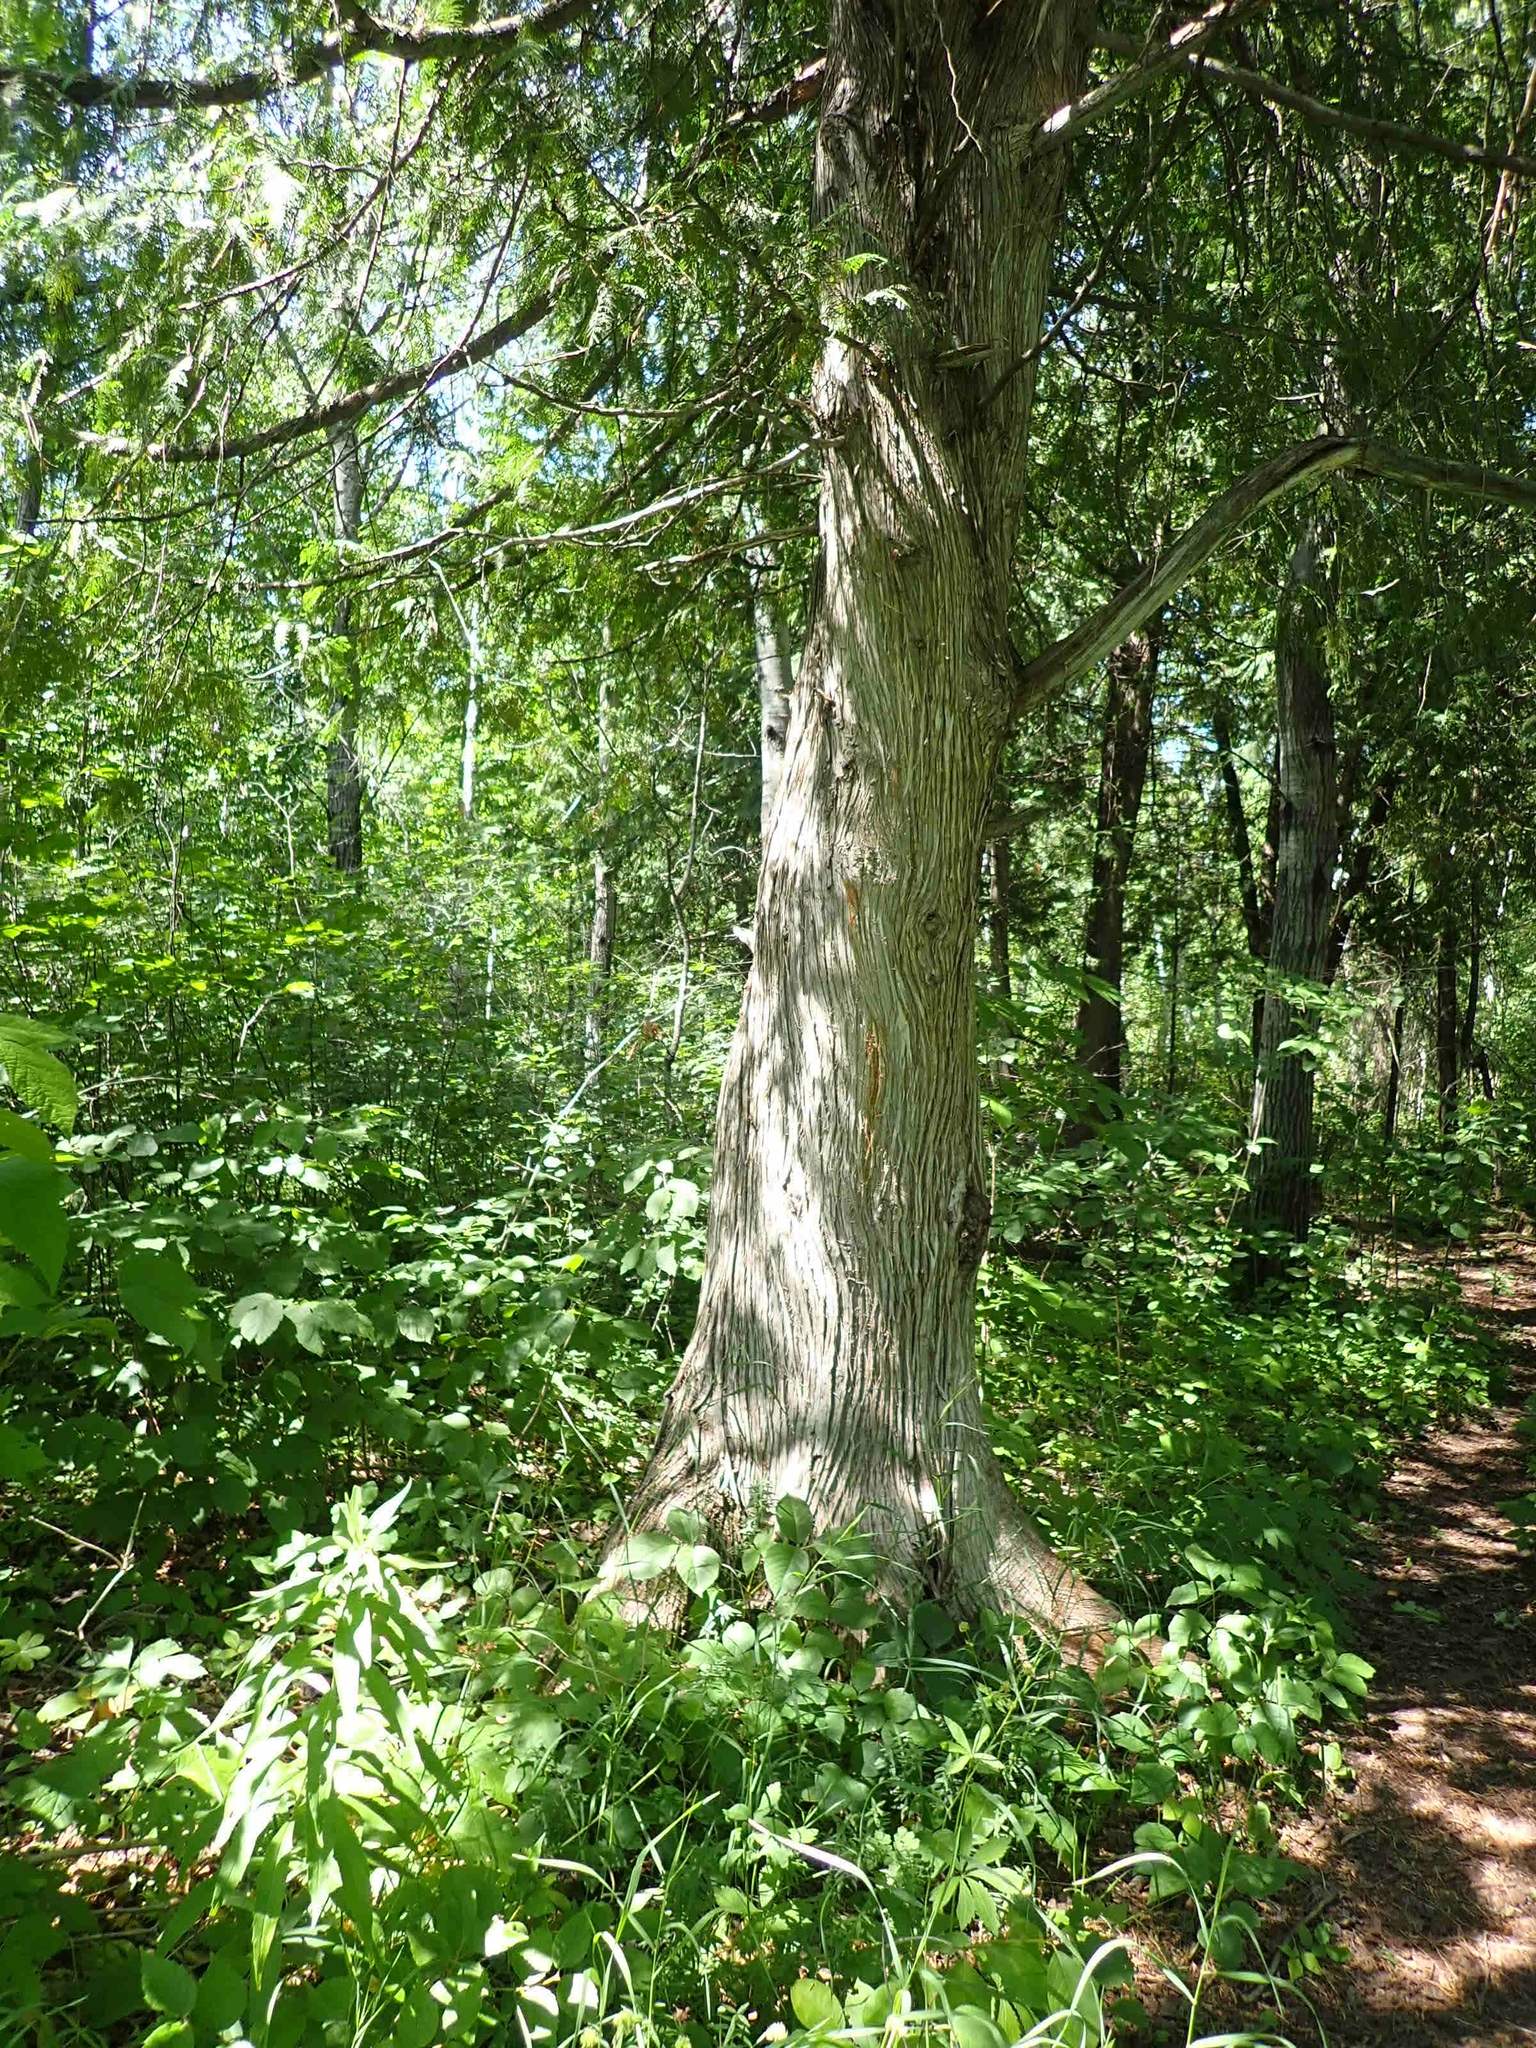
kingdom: Plantae
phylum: Tracheophyta
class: Pinopsida
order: Pinales
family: Cupressaceae
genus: Thuja
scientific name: Thuja occidentalis
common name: Northern white-cedar
